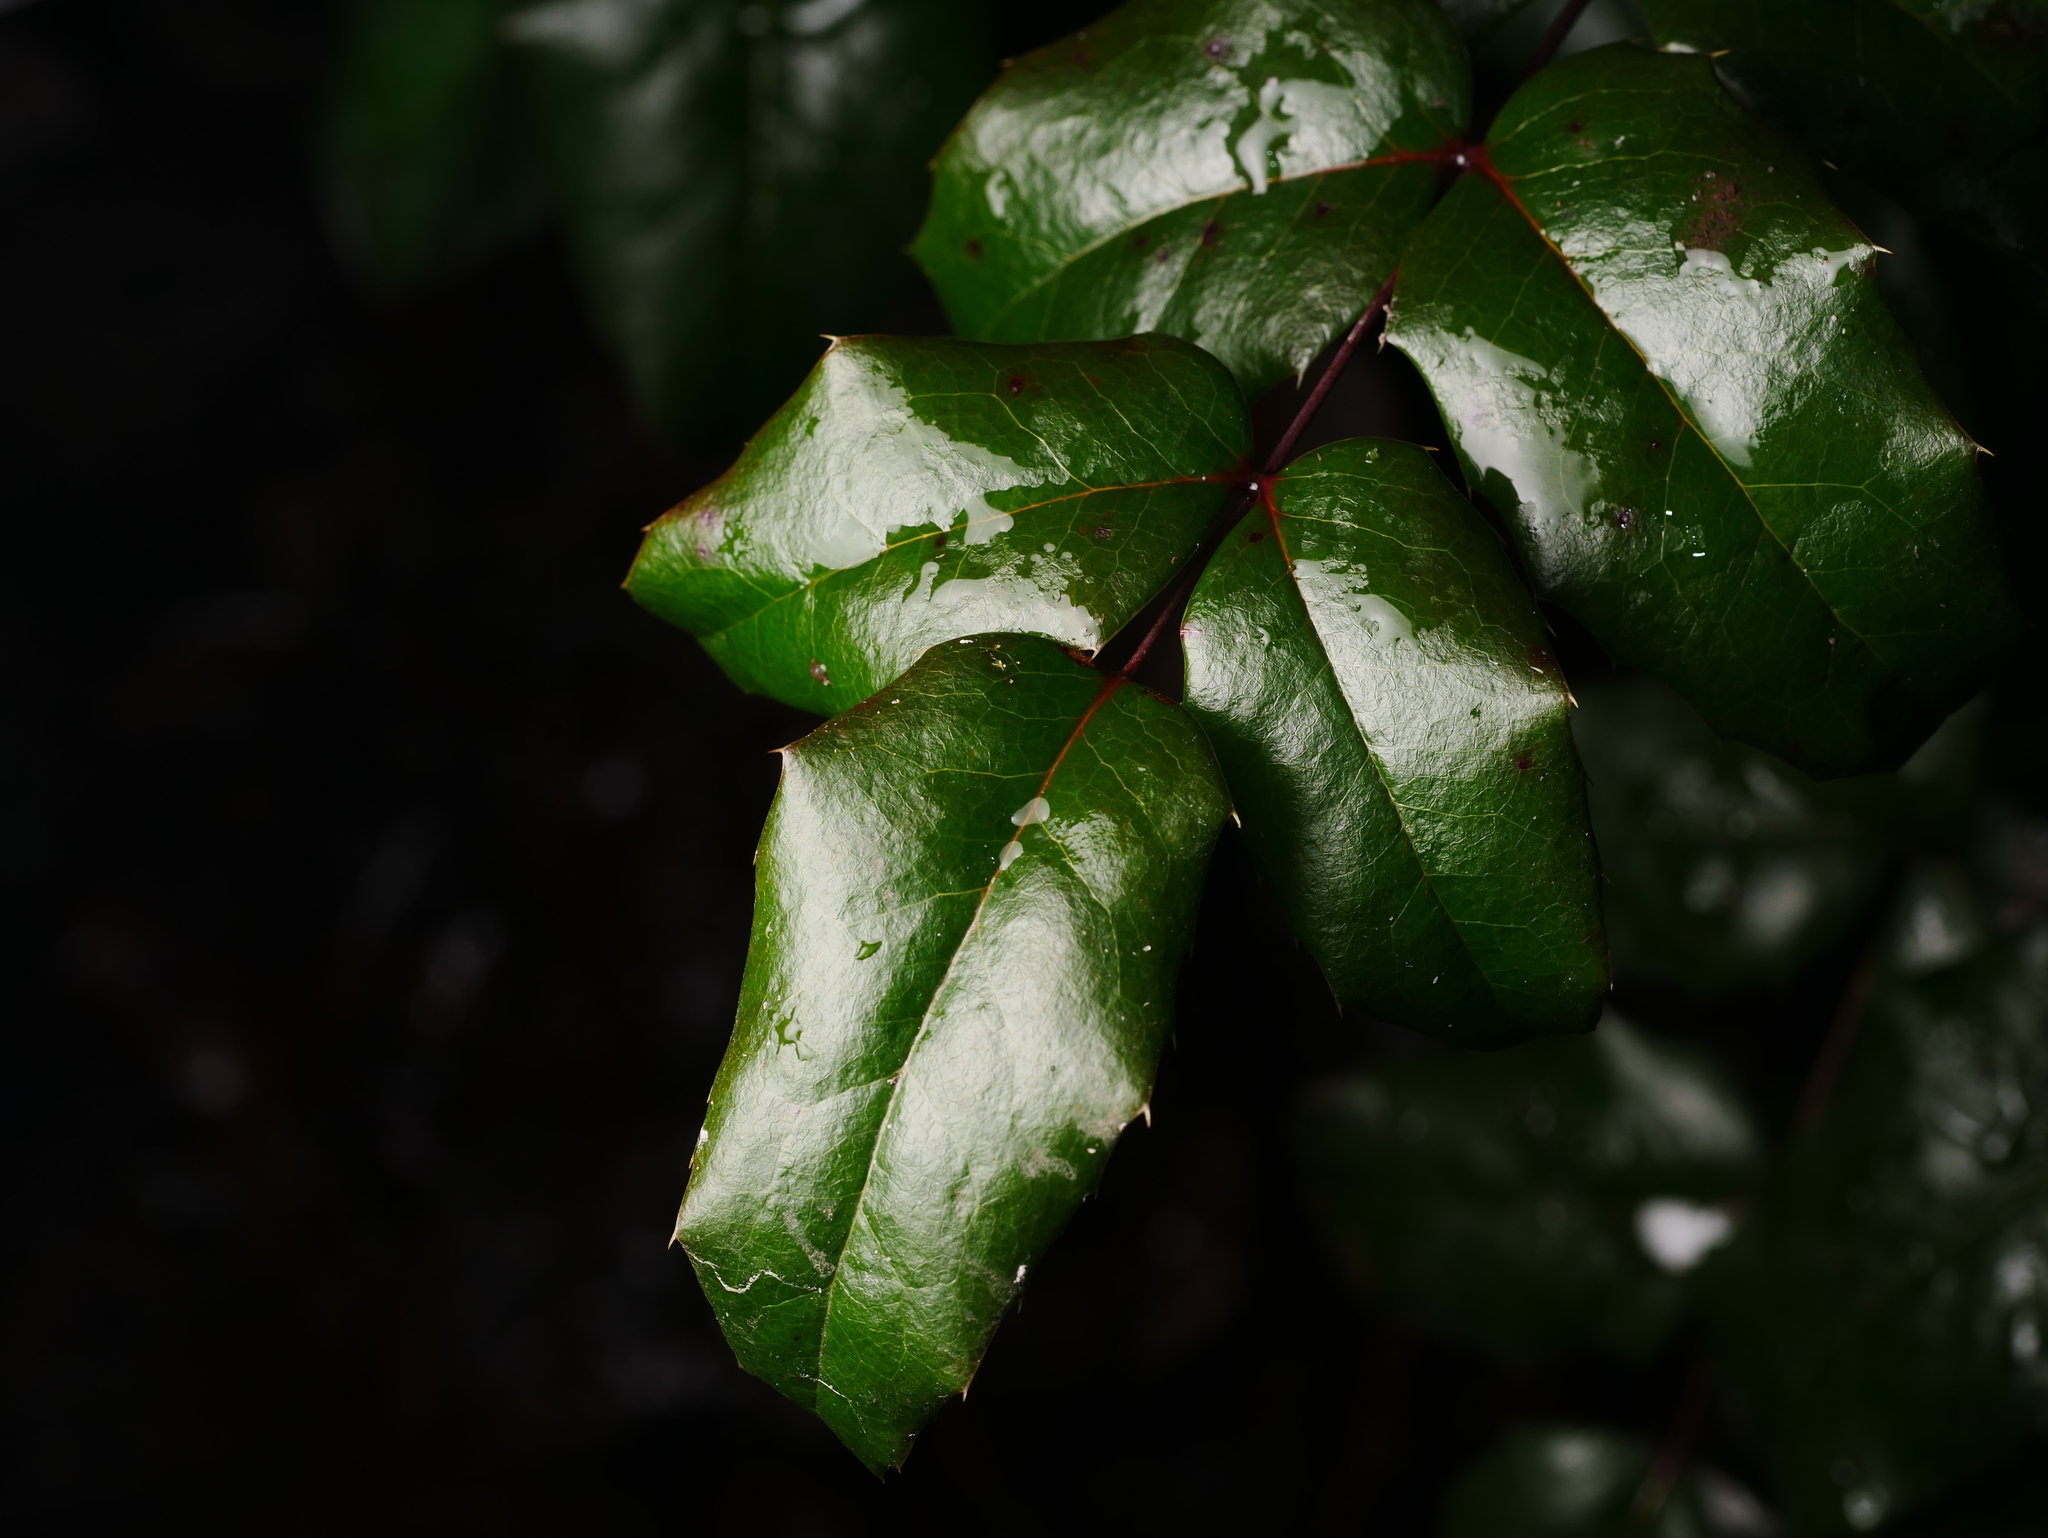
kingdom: Plantae
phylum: Tracheophyta
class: Magnoliopsida
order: Ranunculales
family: Berberidaceae
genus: Mahonia
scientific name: Mahonia aquifolium
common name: Oregon-grape
